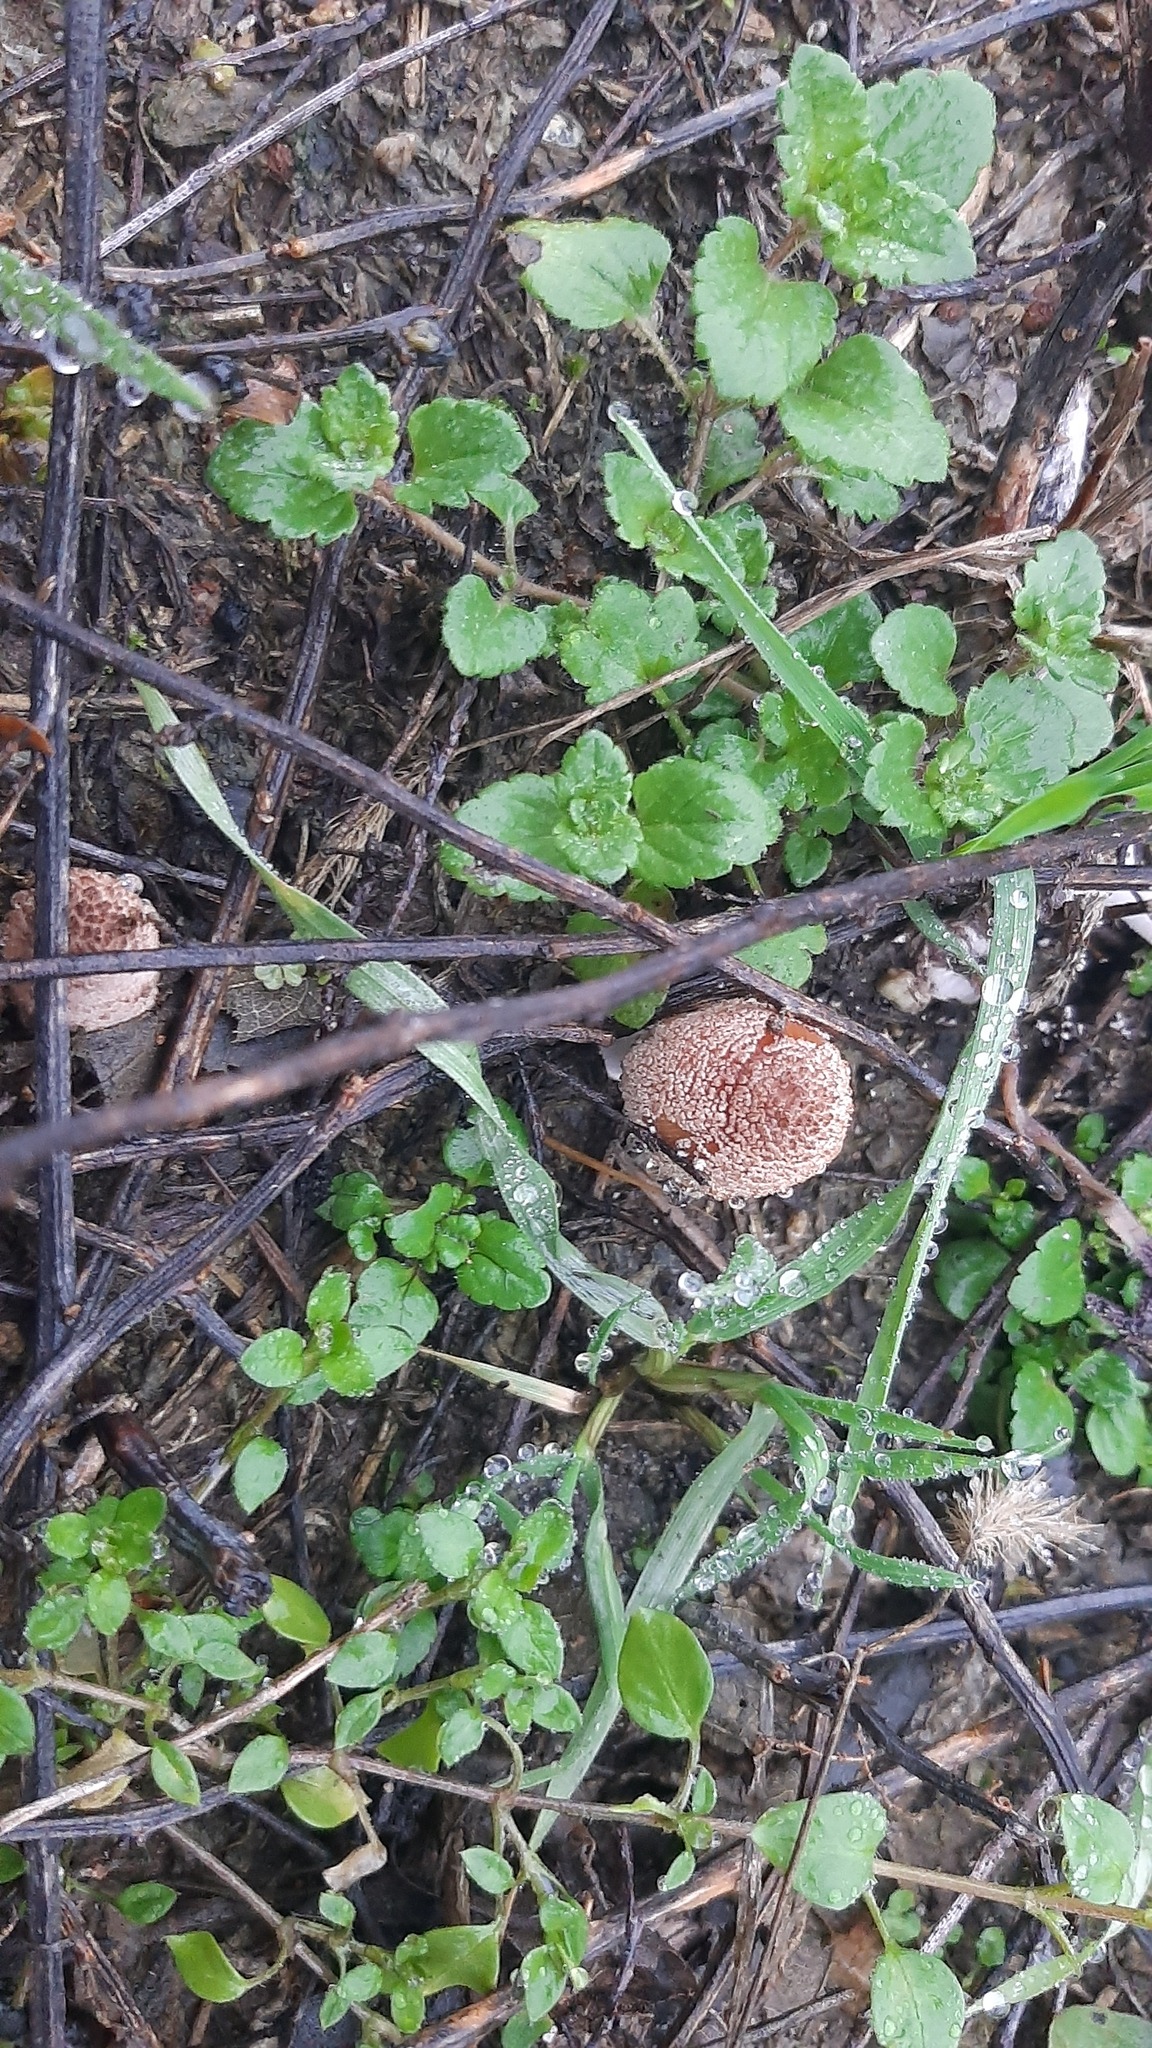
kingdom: Plantae
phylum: Tracheophyta
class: Magnoliopsida
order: Lamiales
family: Plantaginaceae
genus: Veronica
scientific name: Veronica persica
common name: Common field-speedwell
